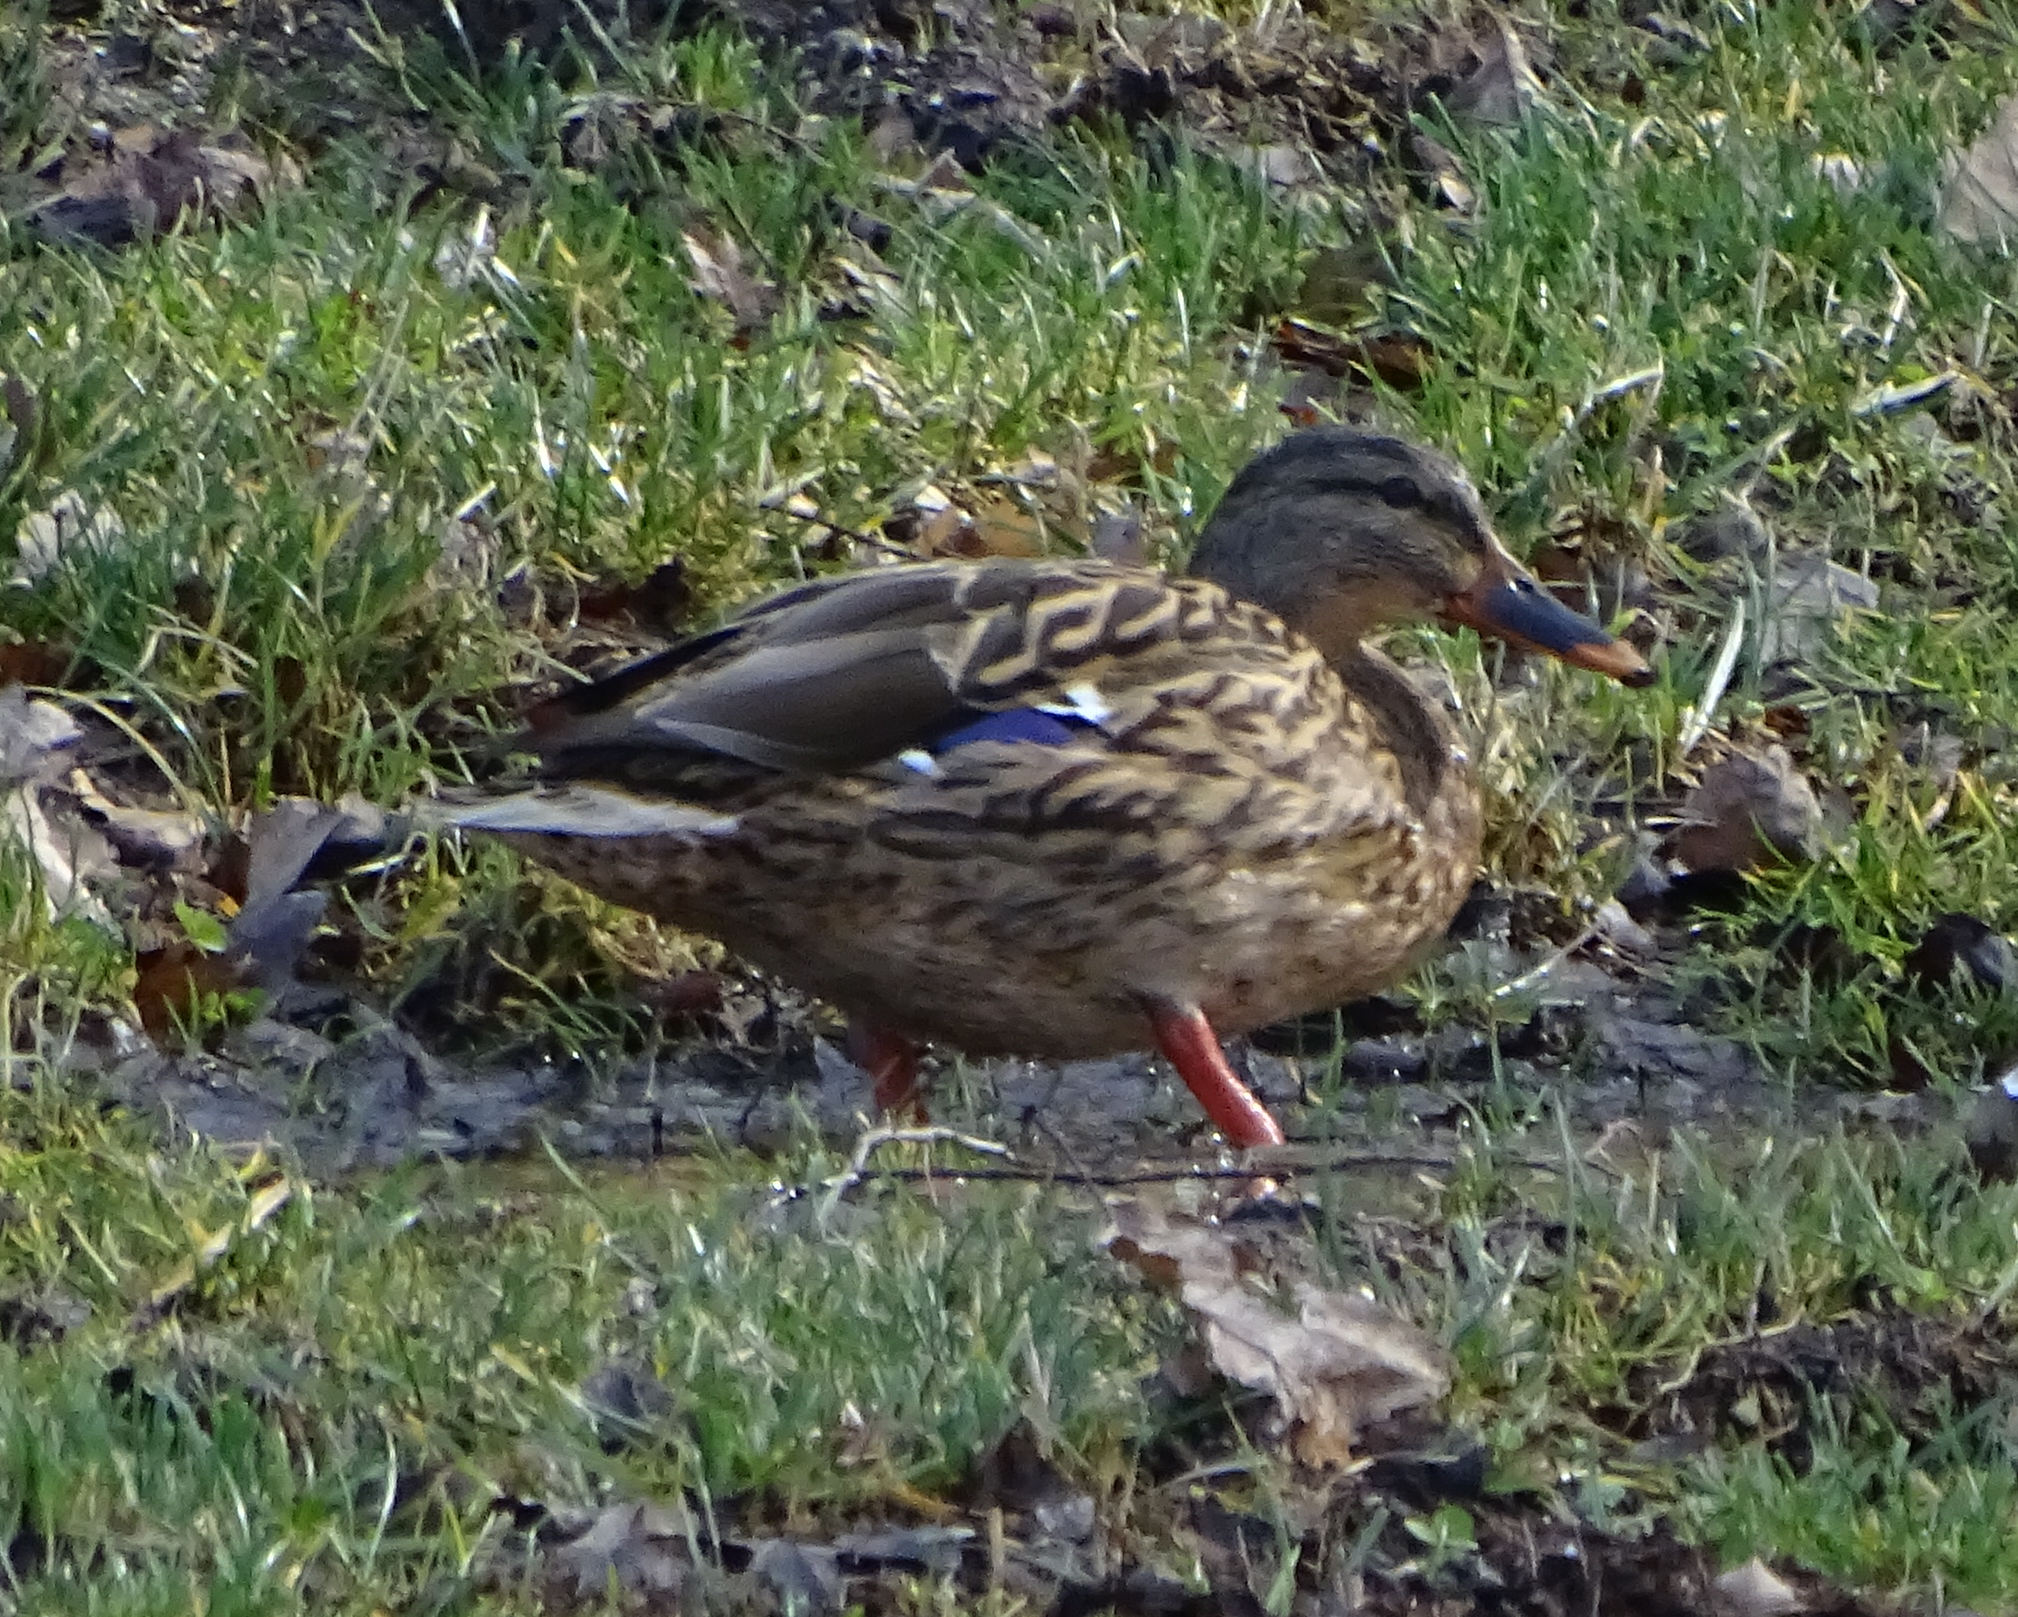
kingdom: Animalia
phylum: Chordata
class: Aves
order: Anseriformes
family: Anatidae
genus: Anas
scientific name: Anas platyrhynchos
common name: Mallard
